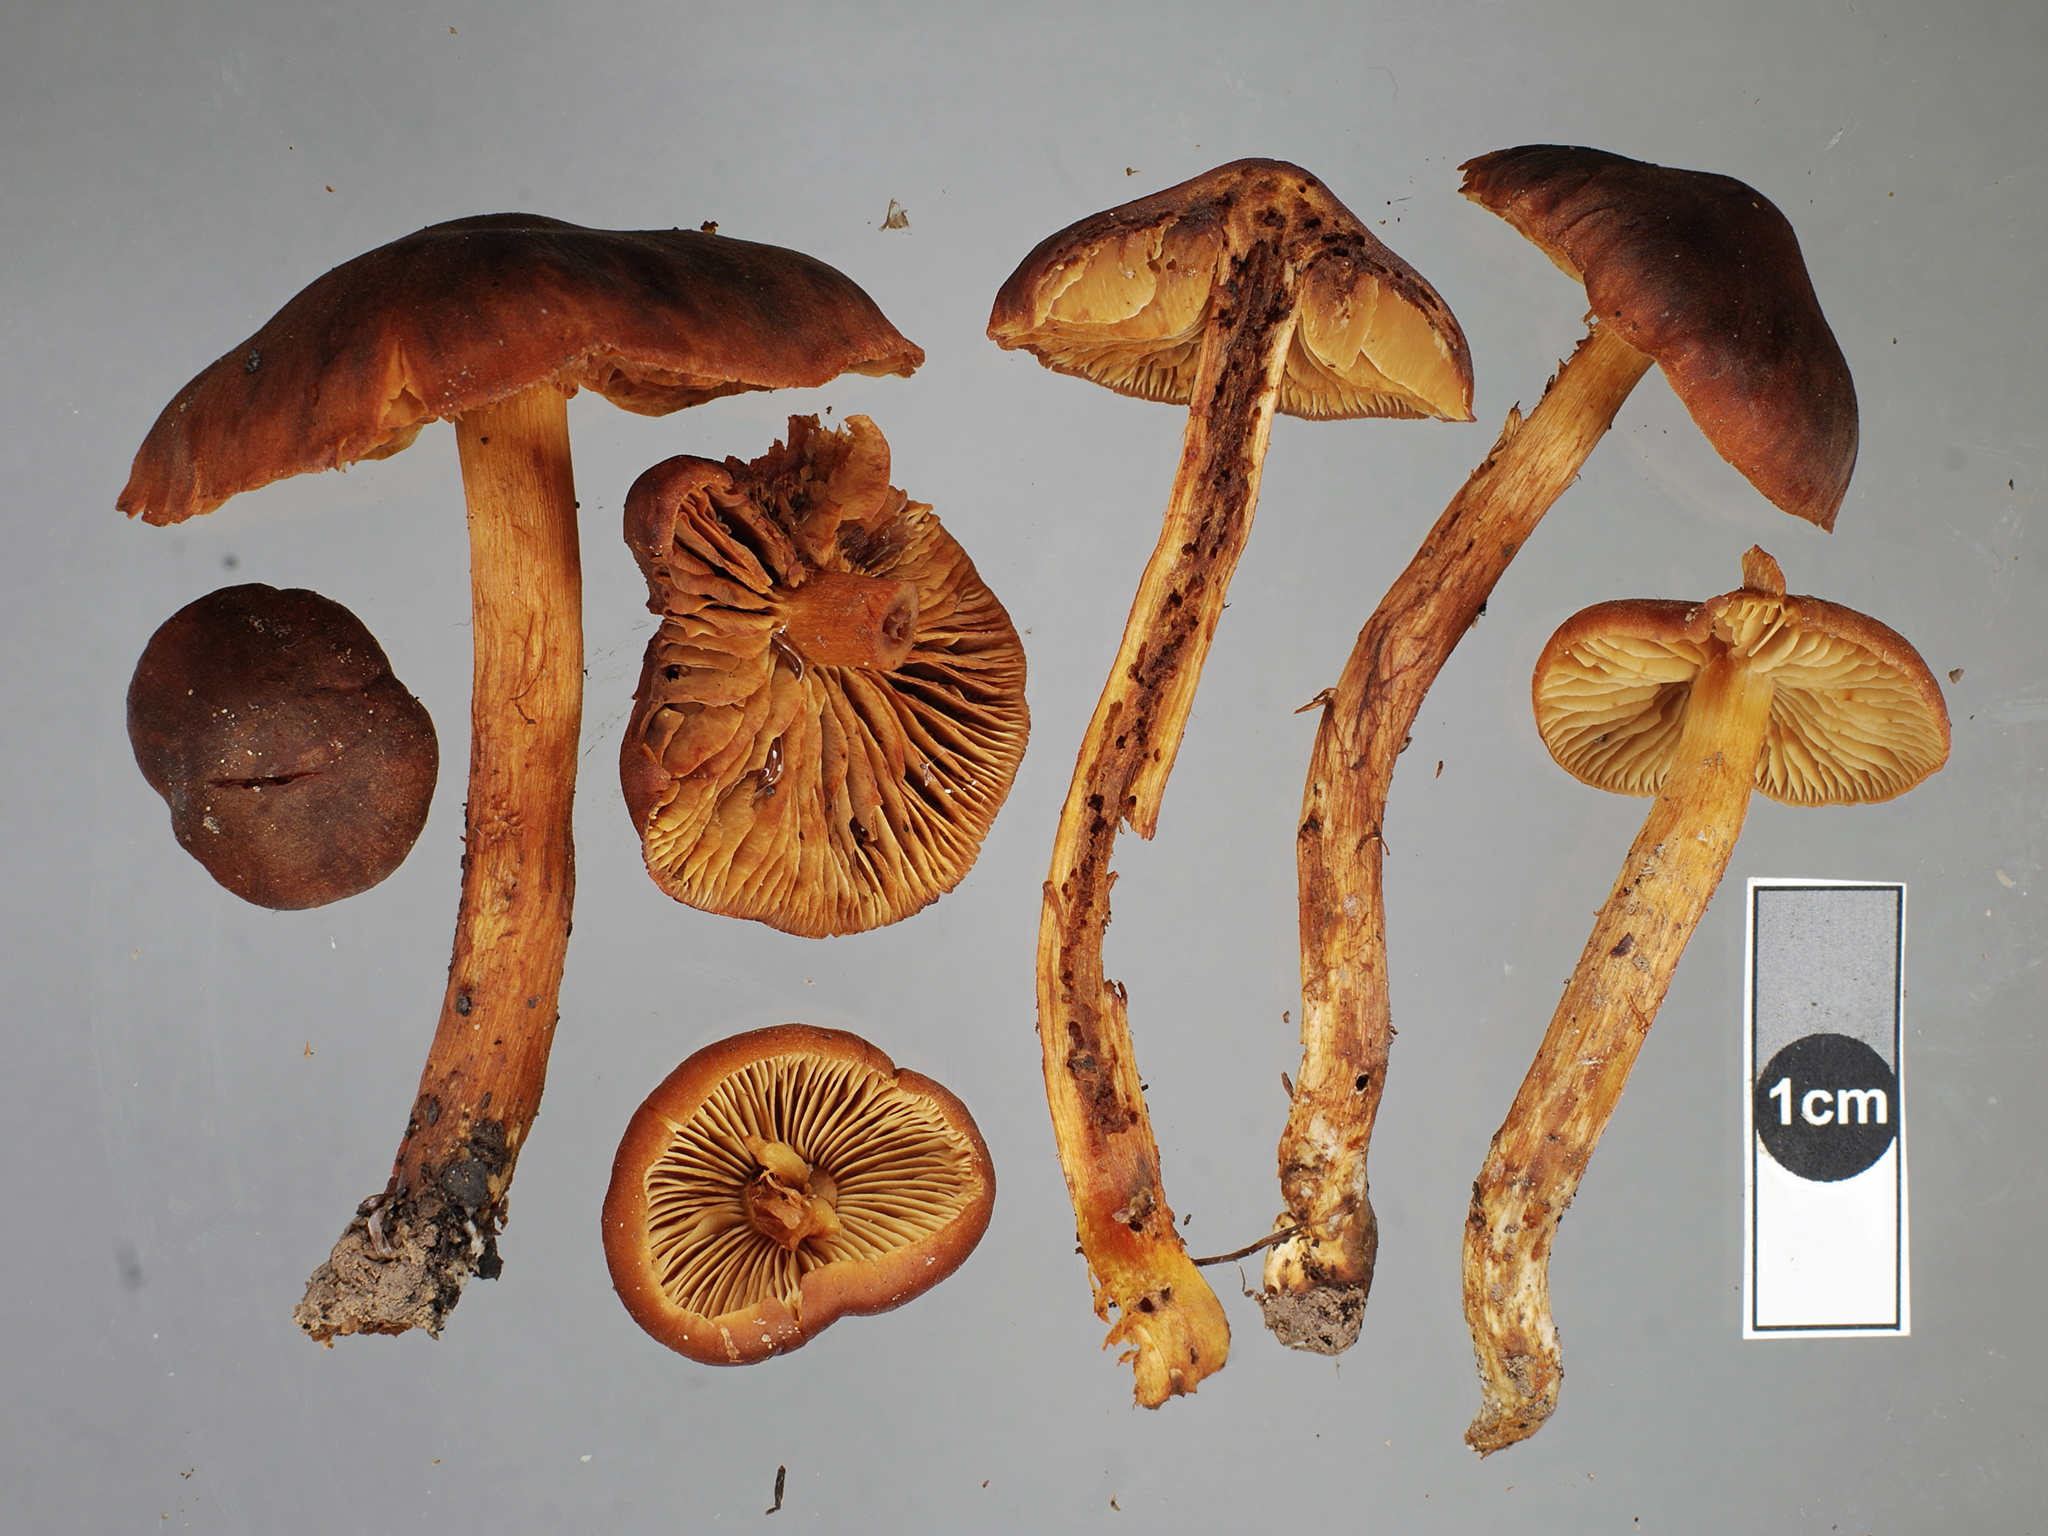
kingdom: Fungi
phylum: Basidiomycota
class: Agaricomycetes
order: Agaricales
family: Cortinariaceae
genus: Aureonarius
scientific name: Aureonarius armiae
